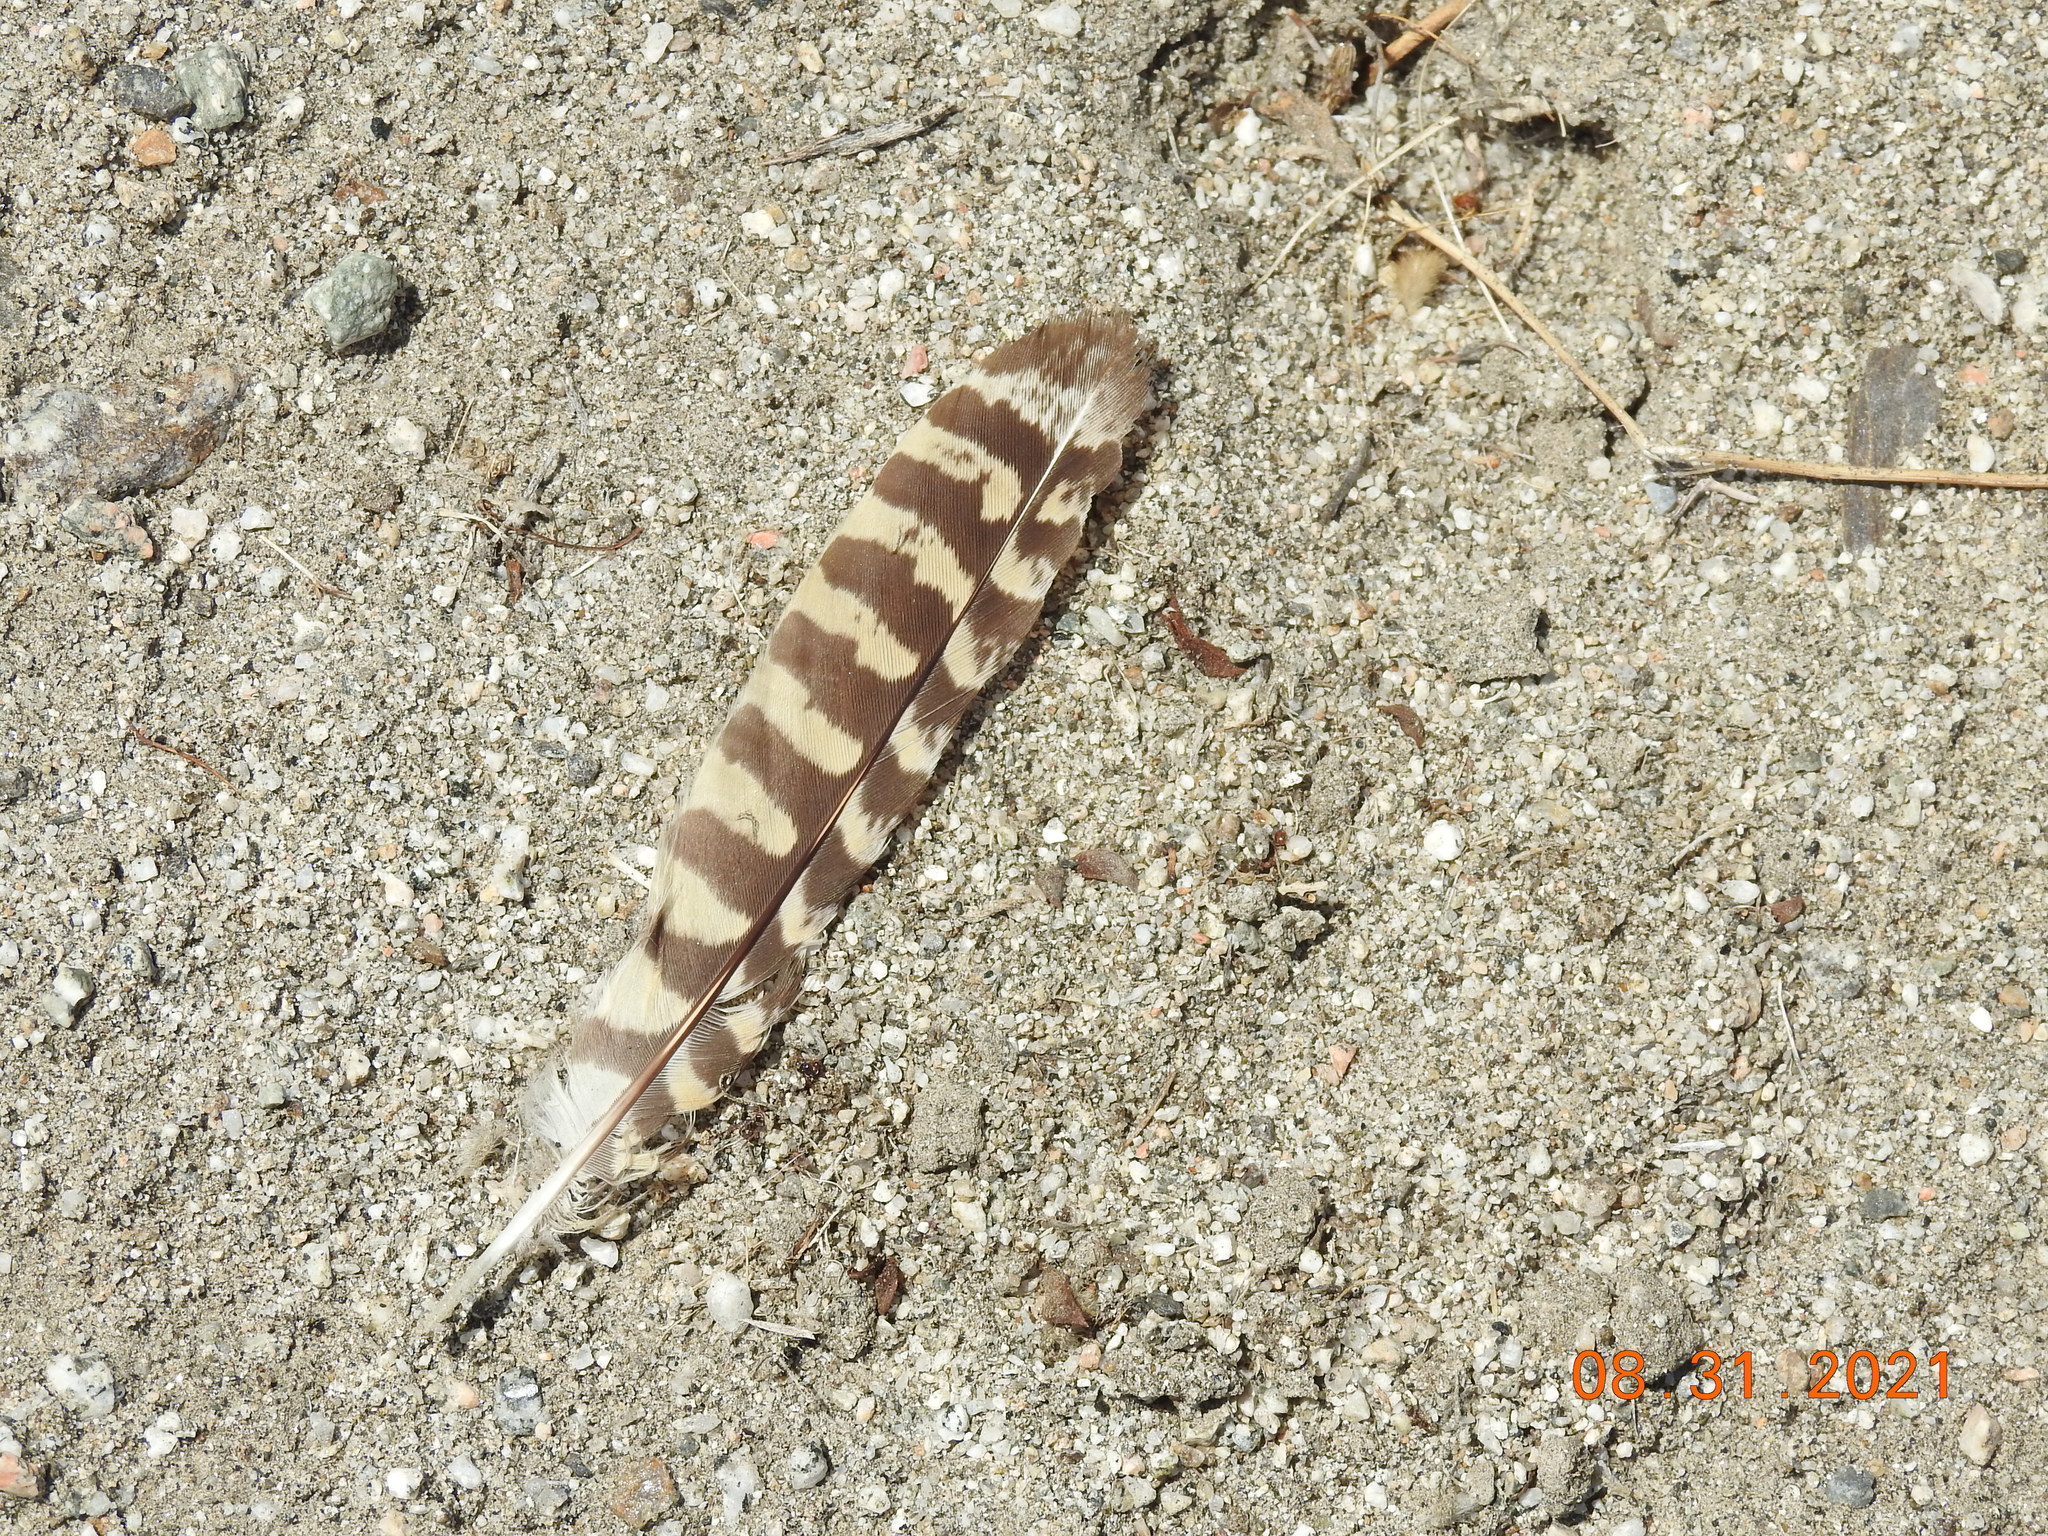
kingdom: Animalia
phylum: Chordata
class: Aves
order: Caprimulgiformes
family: Caprimulgidae
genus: Chordeiles
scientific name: Chordeiles acutipennis
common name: Lesser nighthawk
